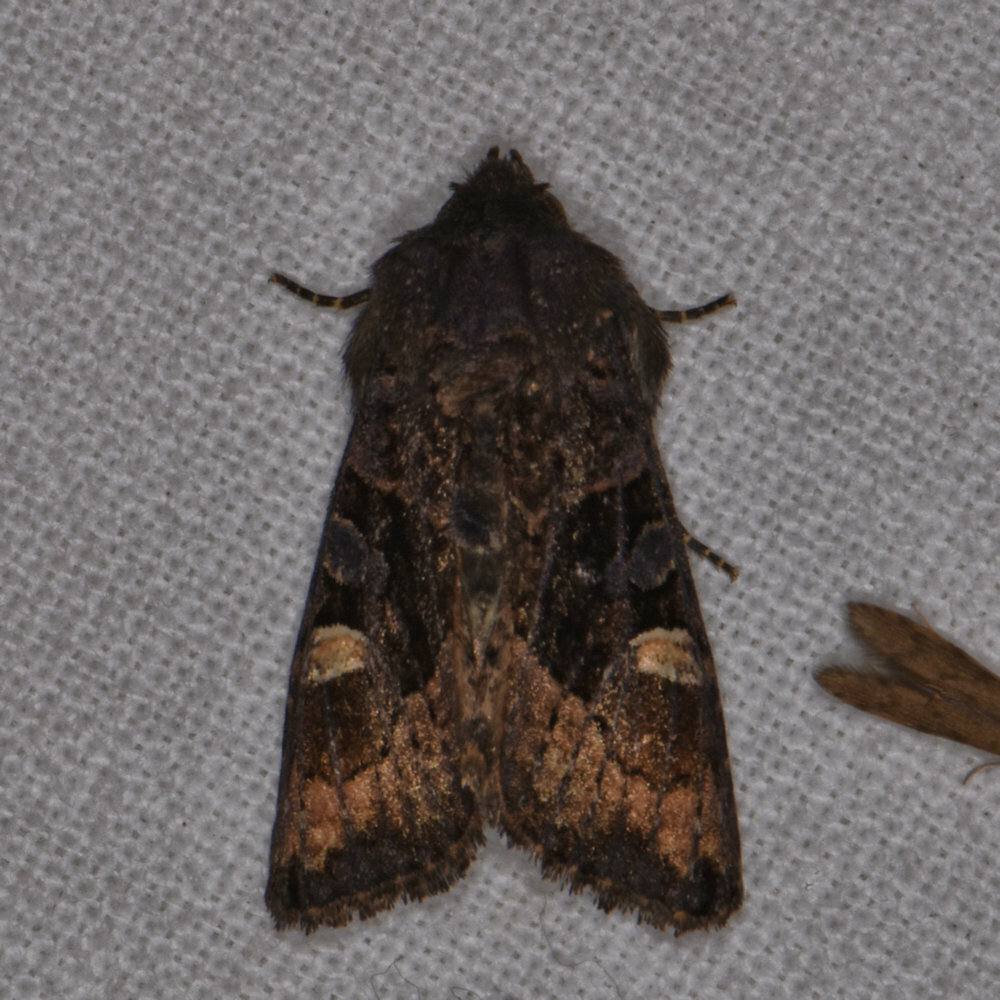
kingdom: Animalia
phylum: Arthropoda
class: Insecta
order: Lepidoptera
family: Noctuidae
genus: Euplexia
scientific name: Euplexia benesimilis
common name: American angle shades
